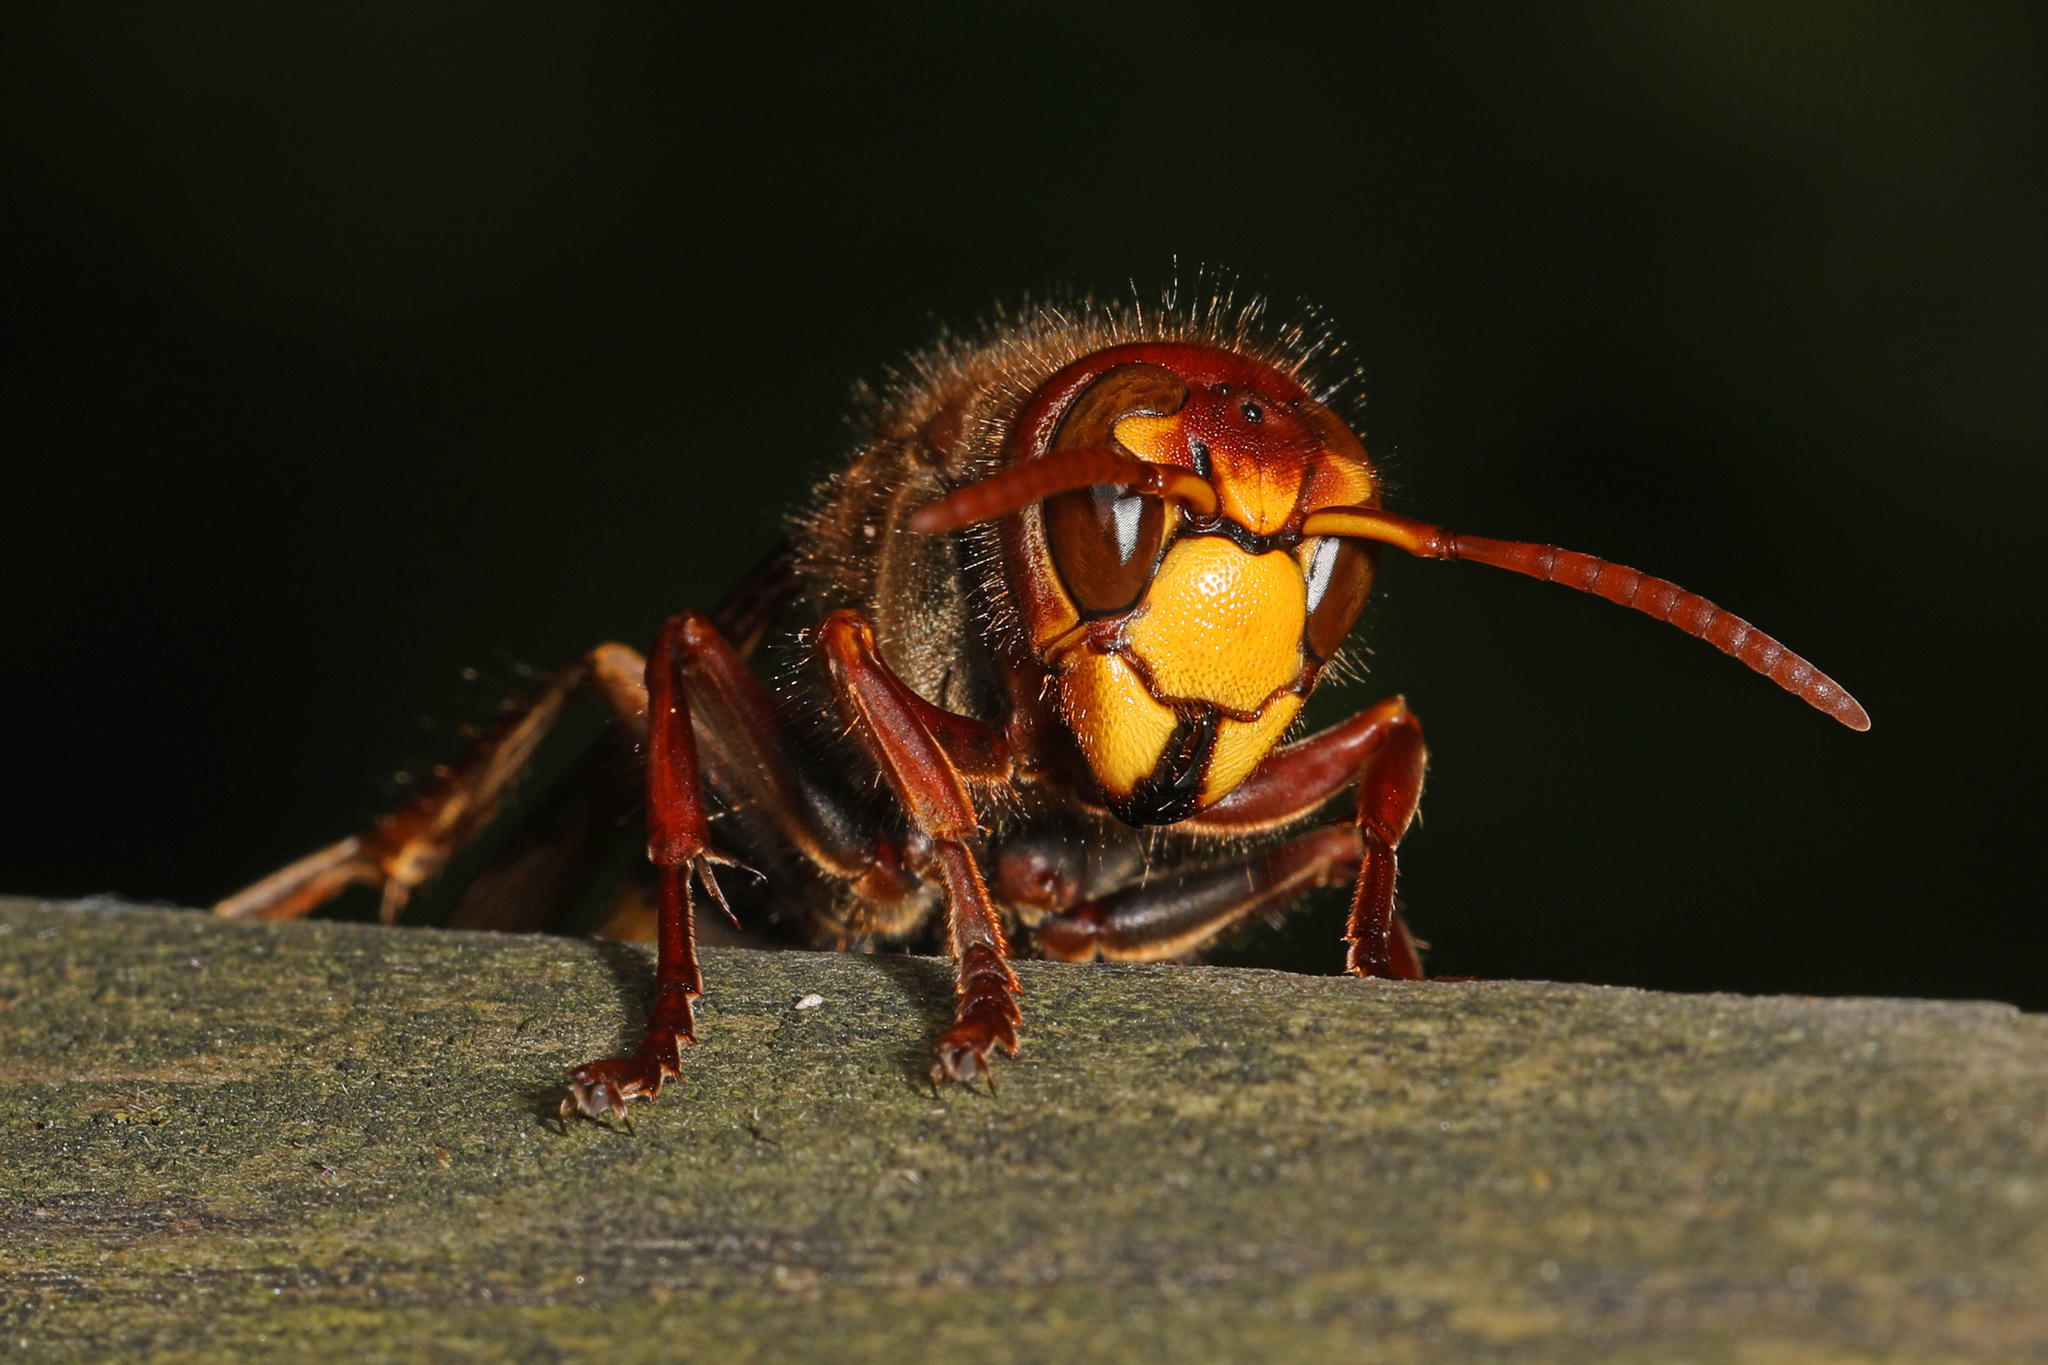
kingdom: Animalia
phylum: Arthropoda
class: Insecta
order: Hymenoptera
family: Vespidae
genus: Vespa
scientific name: Vespa crabro
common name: Hornet
